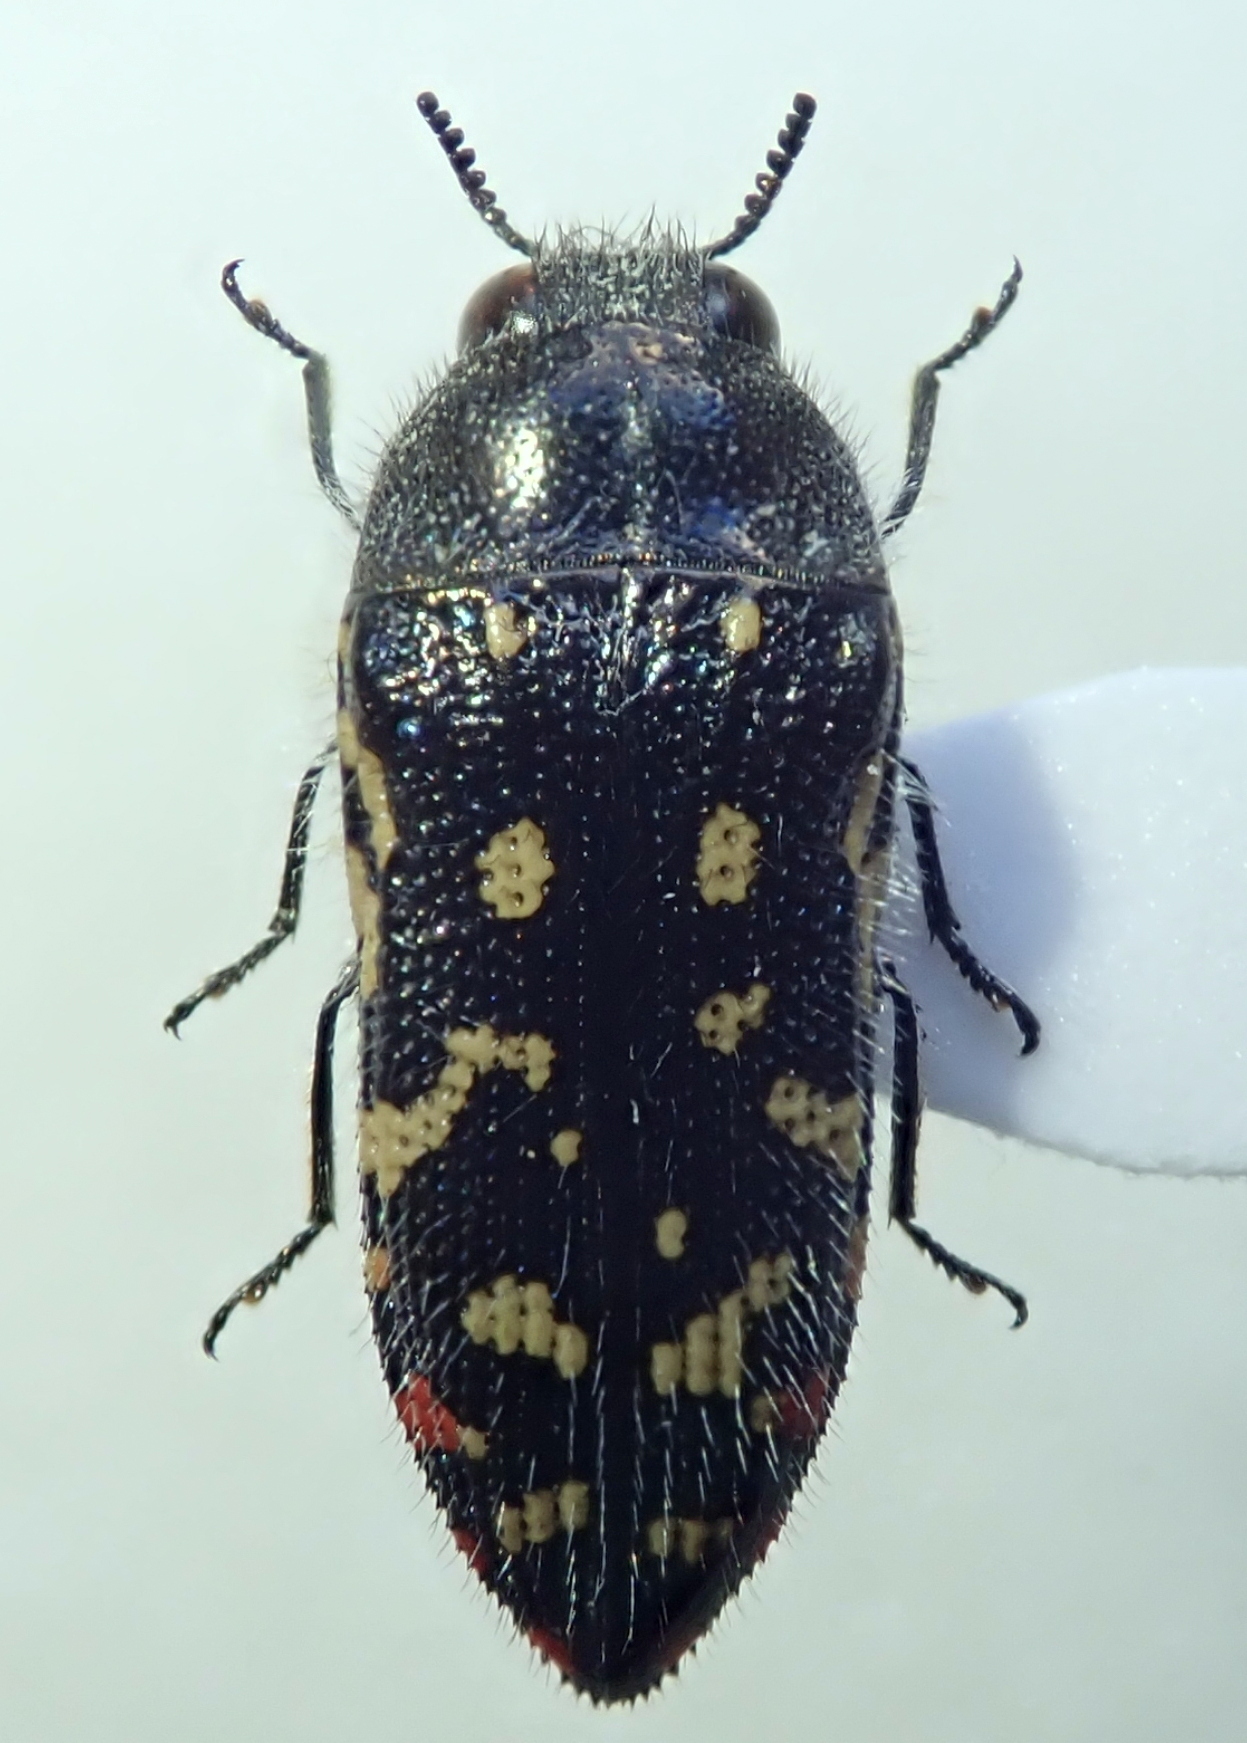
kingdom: Animalia
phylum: Arthropoda
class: Insecta
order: Coleoptera
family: Buprestidae
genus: Acmaeodera
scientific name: Acmaeodera rubronotata
